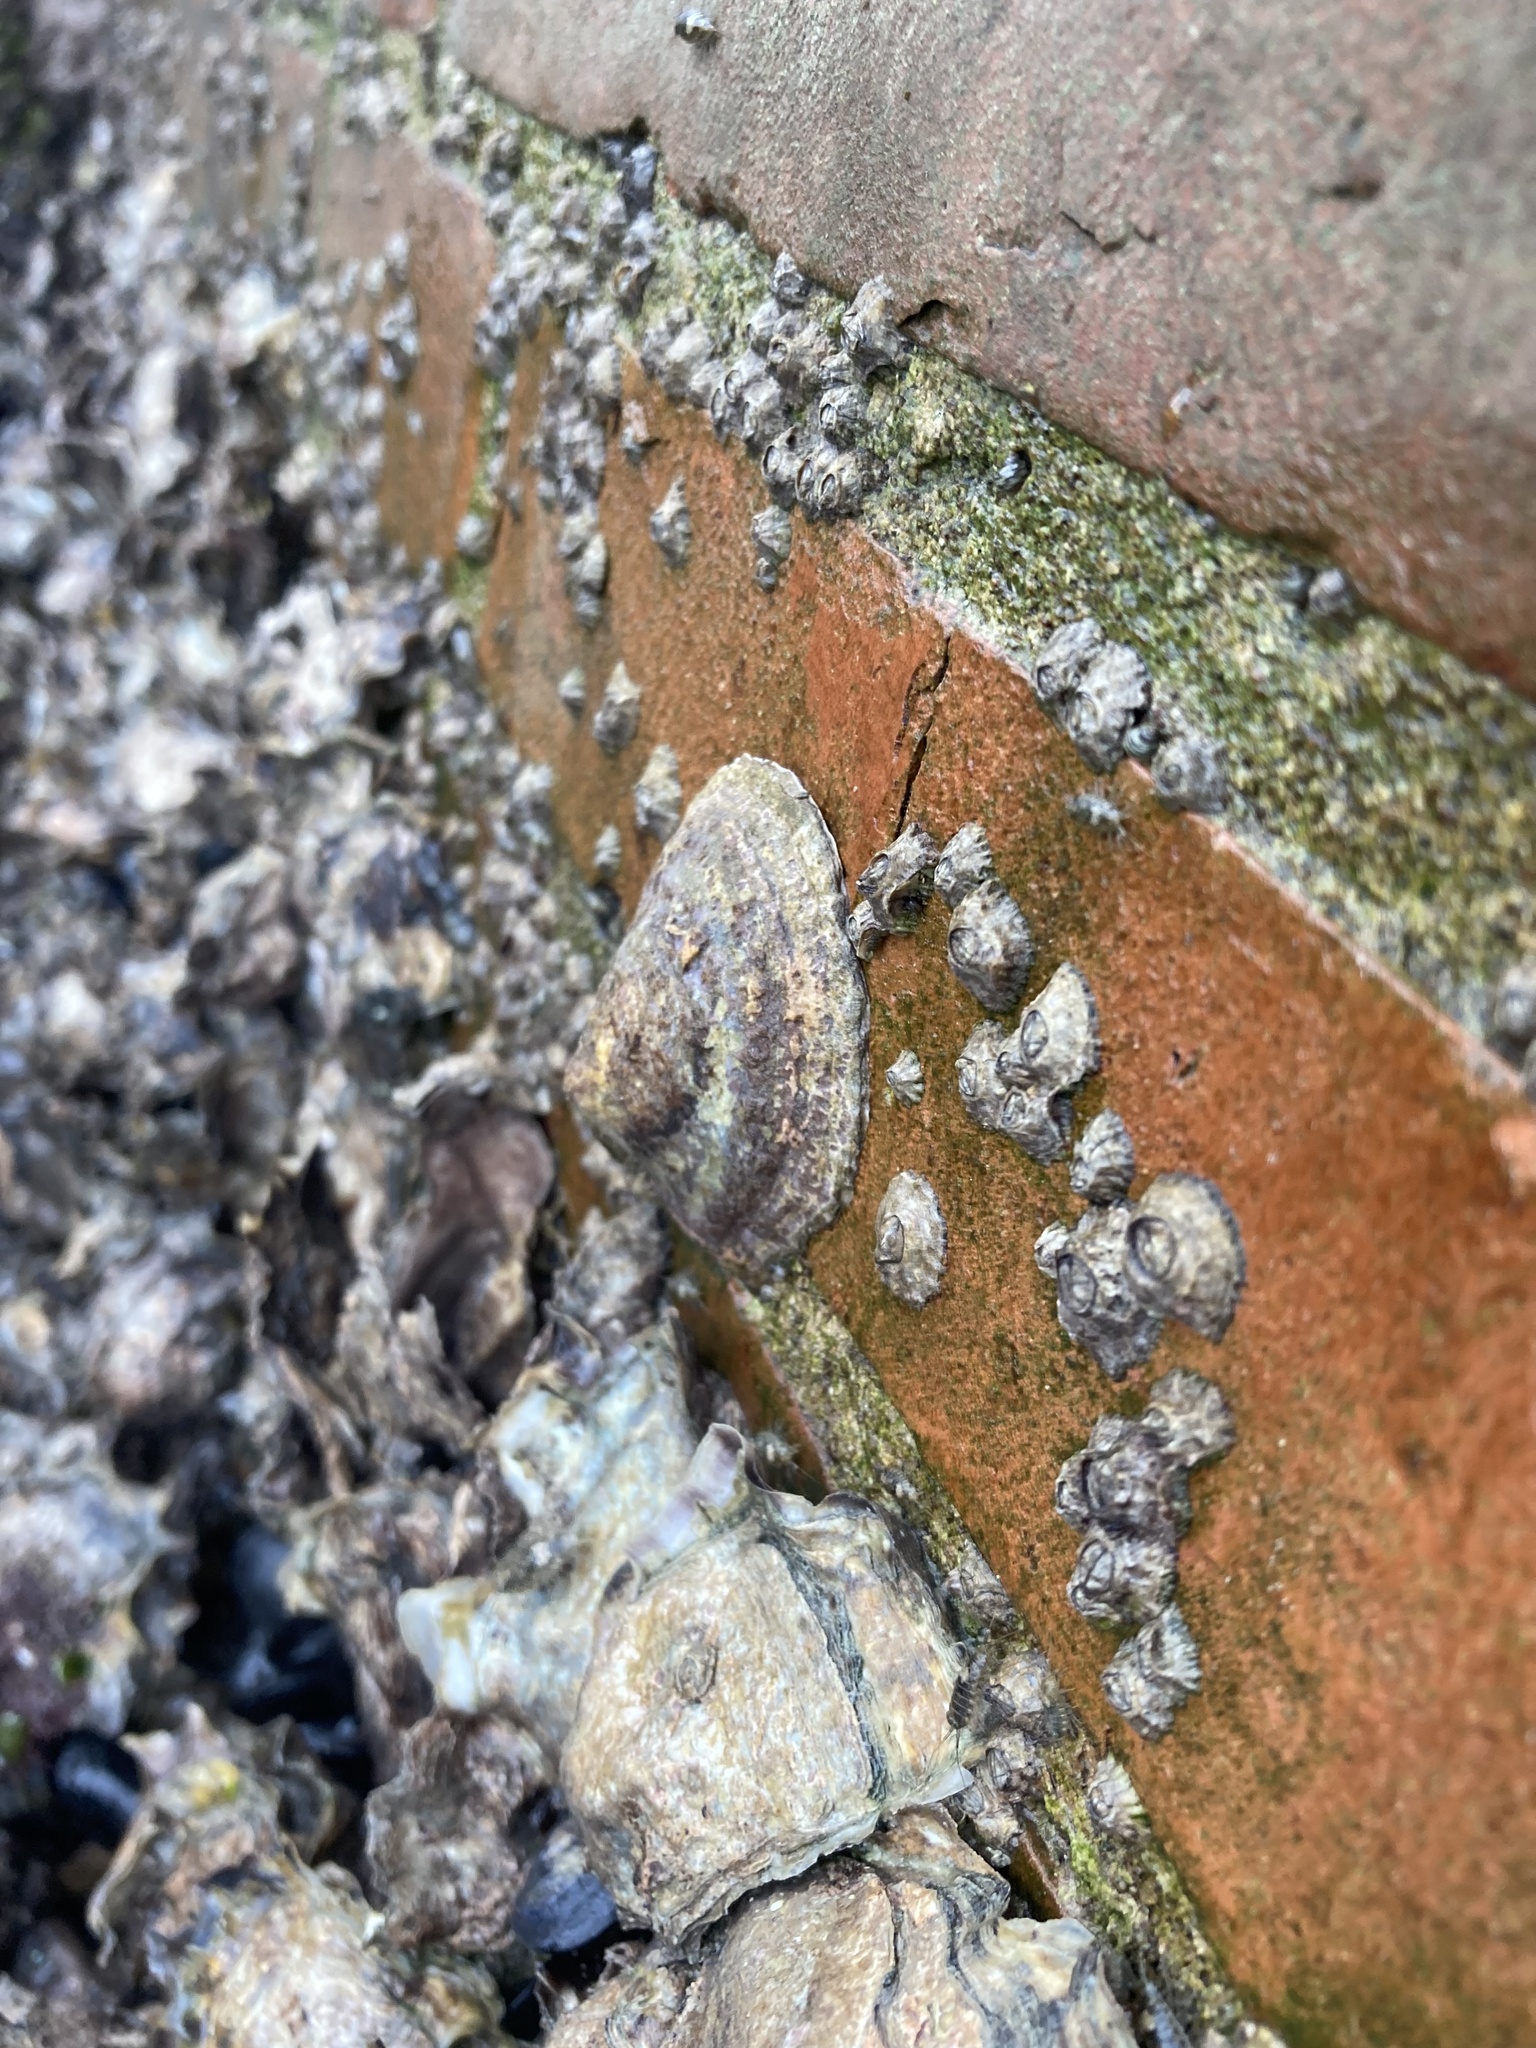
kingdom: Animalia
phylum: Mollusca
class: Gastropoda
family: Patellidae
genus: Patella
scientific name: Patella caerulea
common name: Mediterranean limpet
